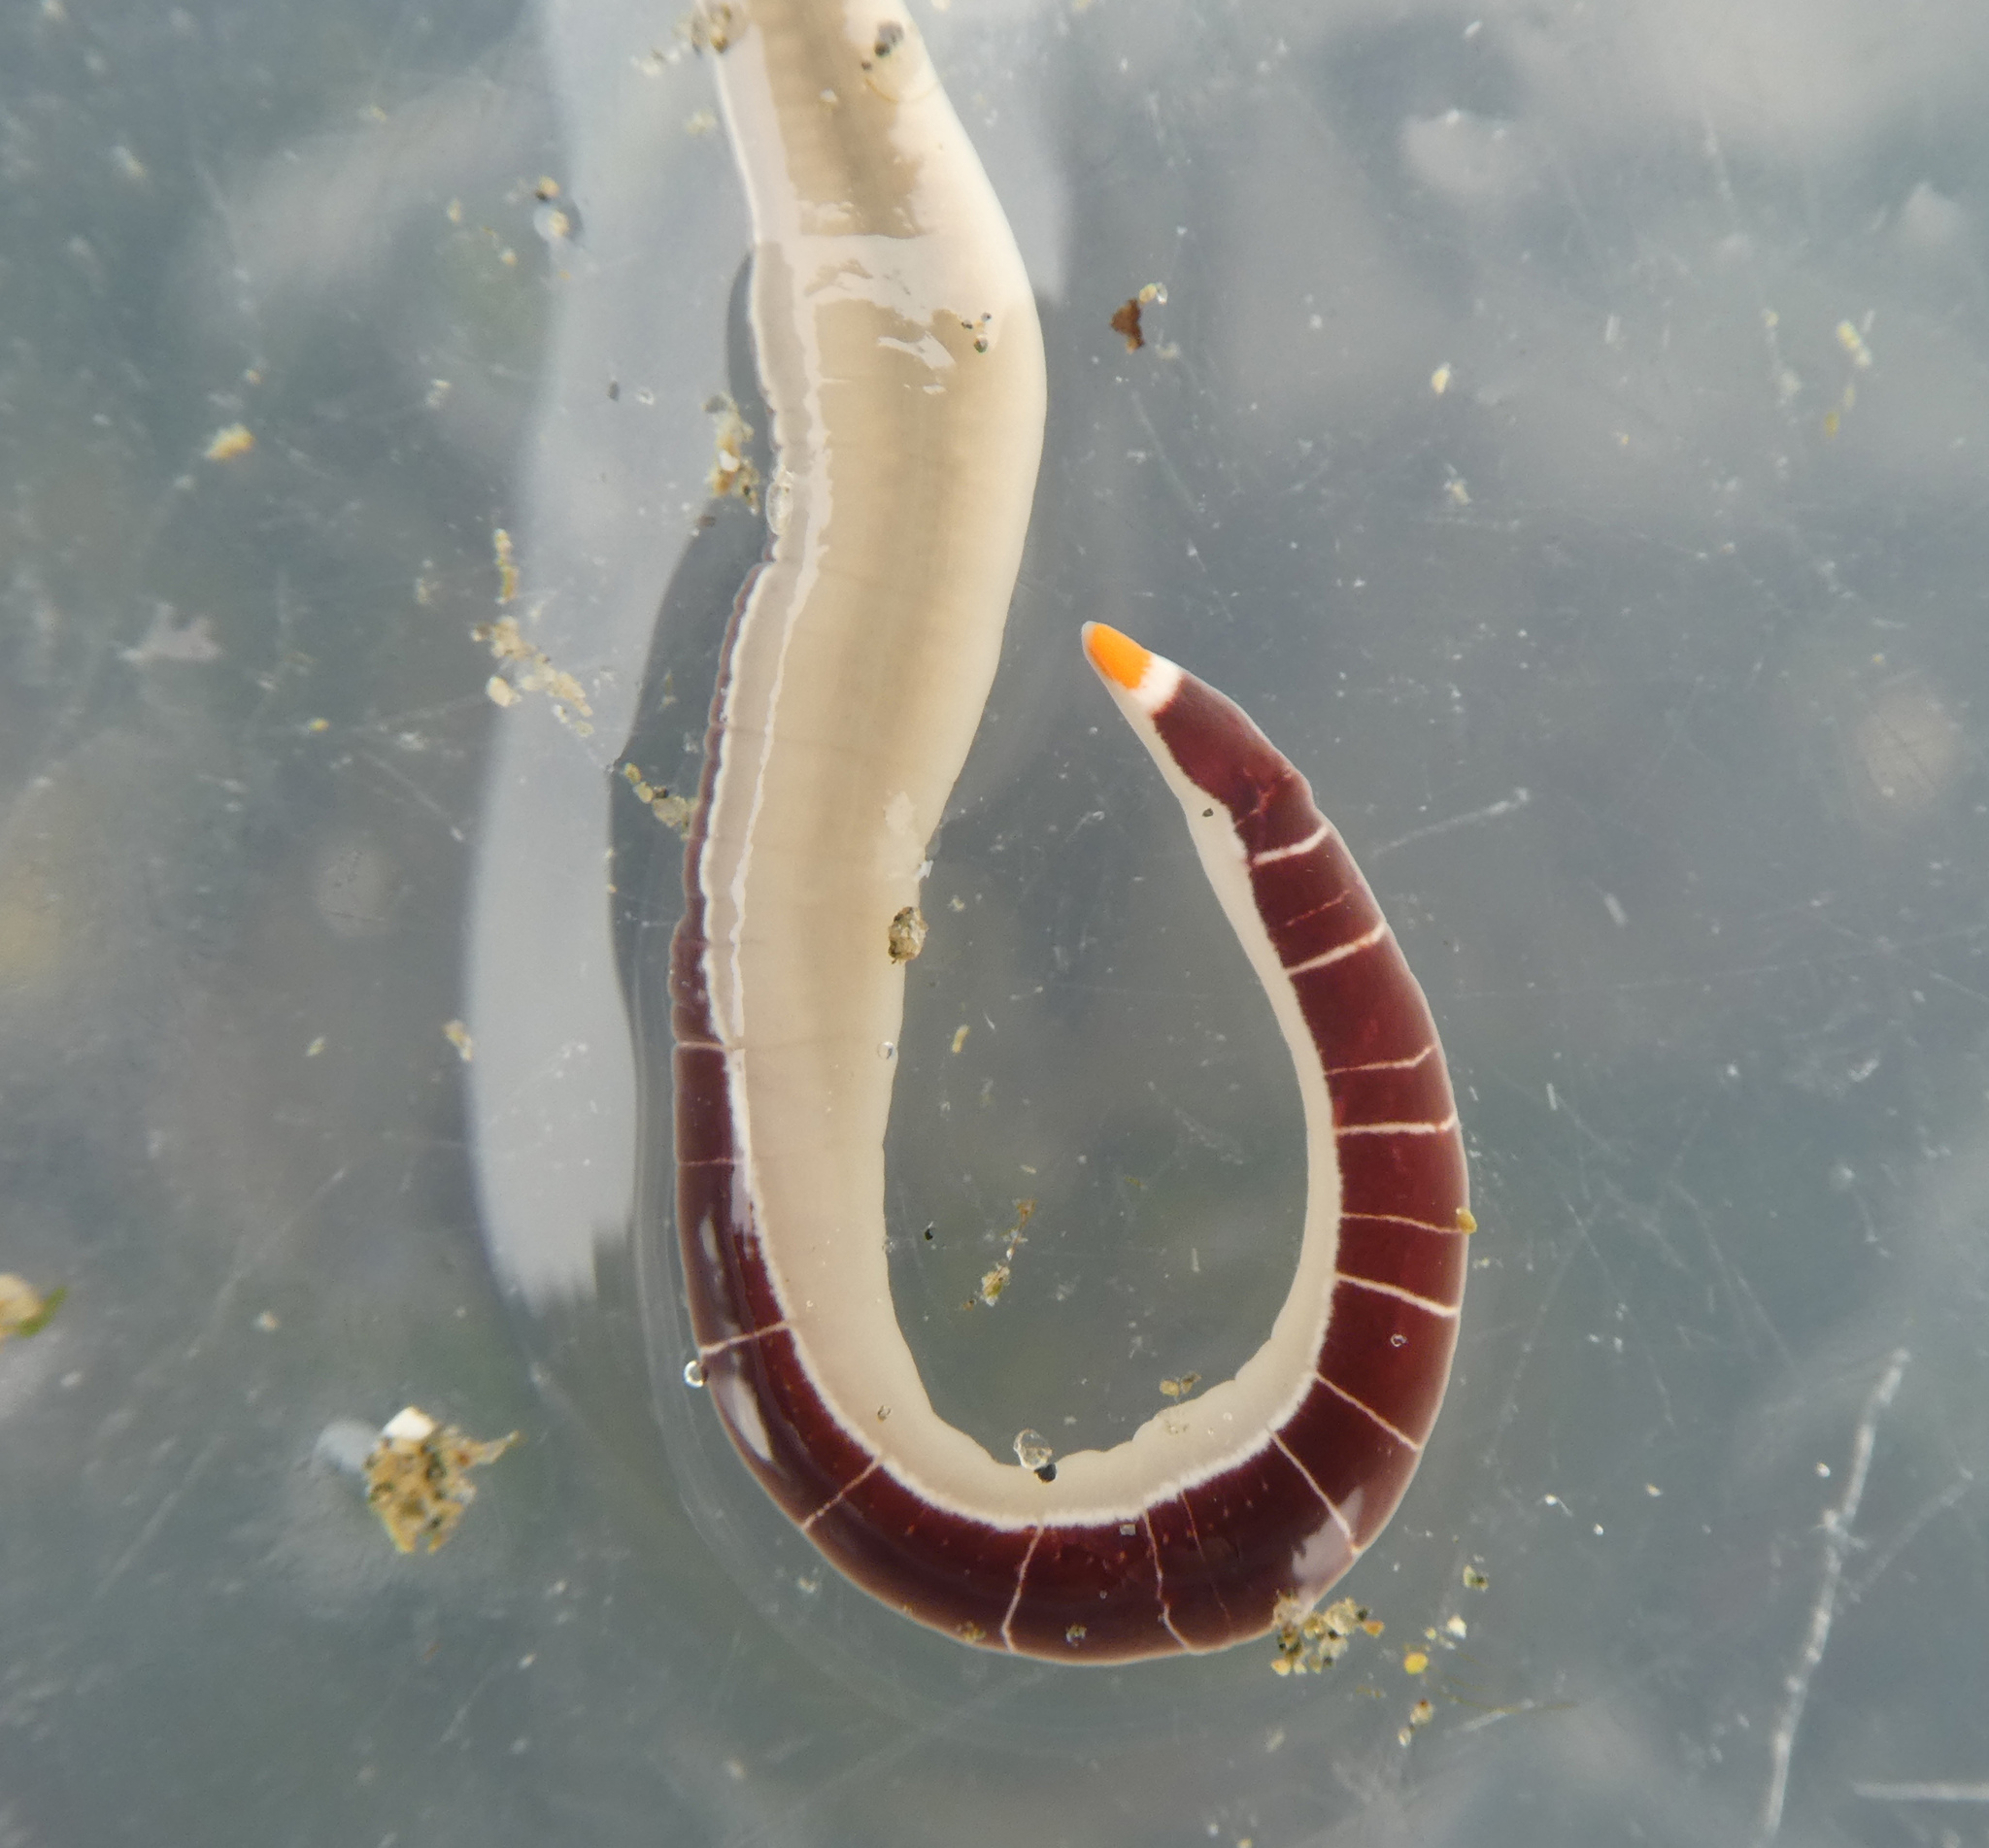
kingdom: Animalia
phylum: Nemertea
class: Pilidiophora
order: Heteronemertea
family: Lineidae
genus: Micrura
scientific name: Micrura verrilli
